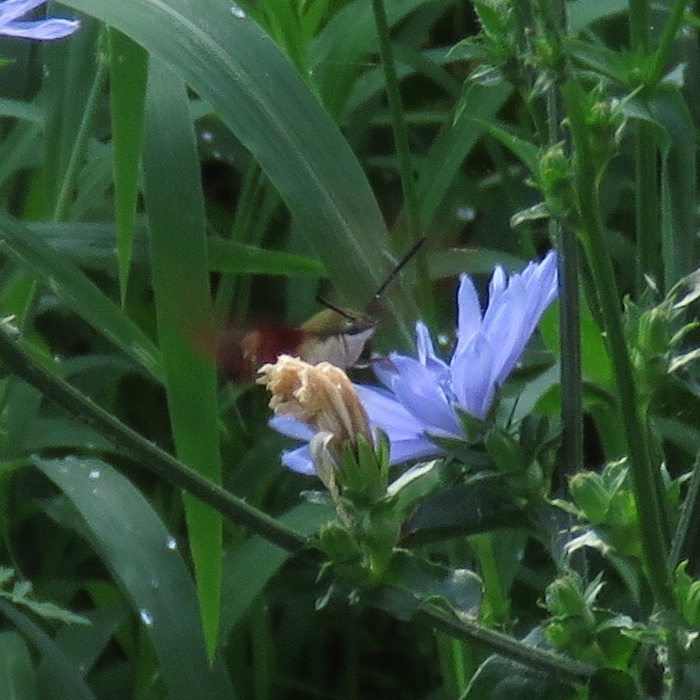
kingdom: Animalia
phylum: Arthropoda
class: Insecta
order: Lepidoptera
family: Sphingidae
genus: Hemaris
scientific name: Hemaris thysbe
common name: Common clear-wing
